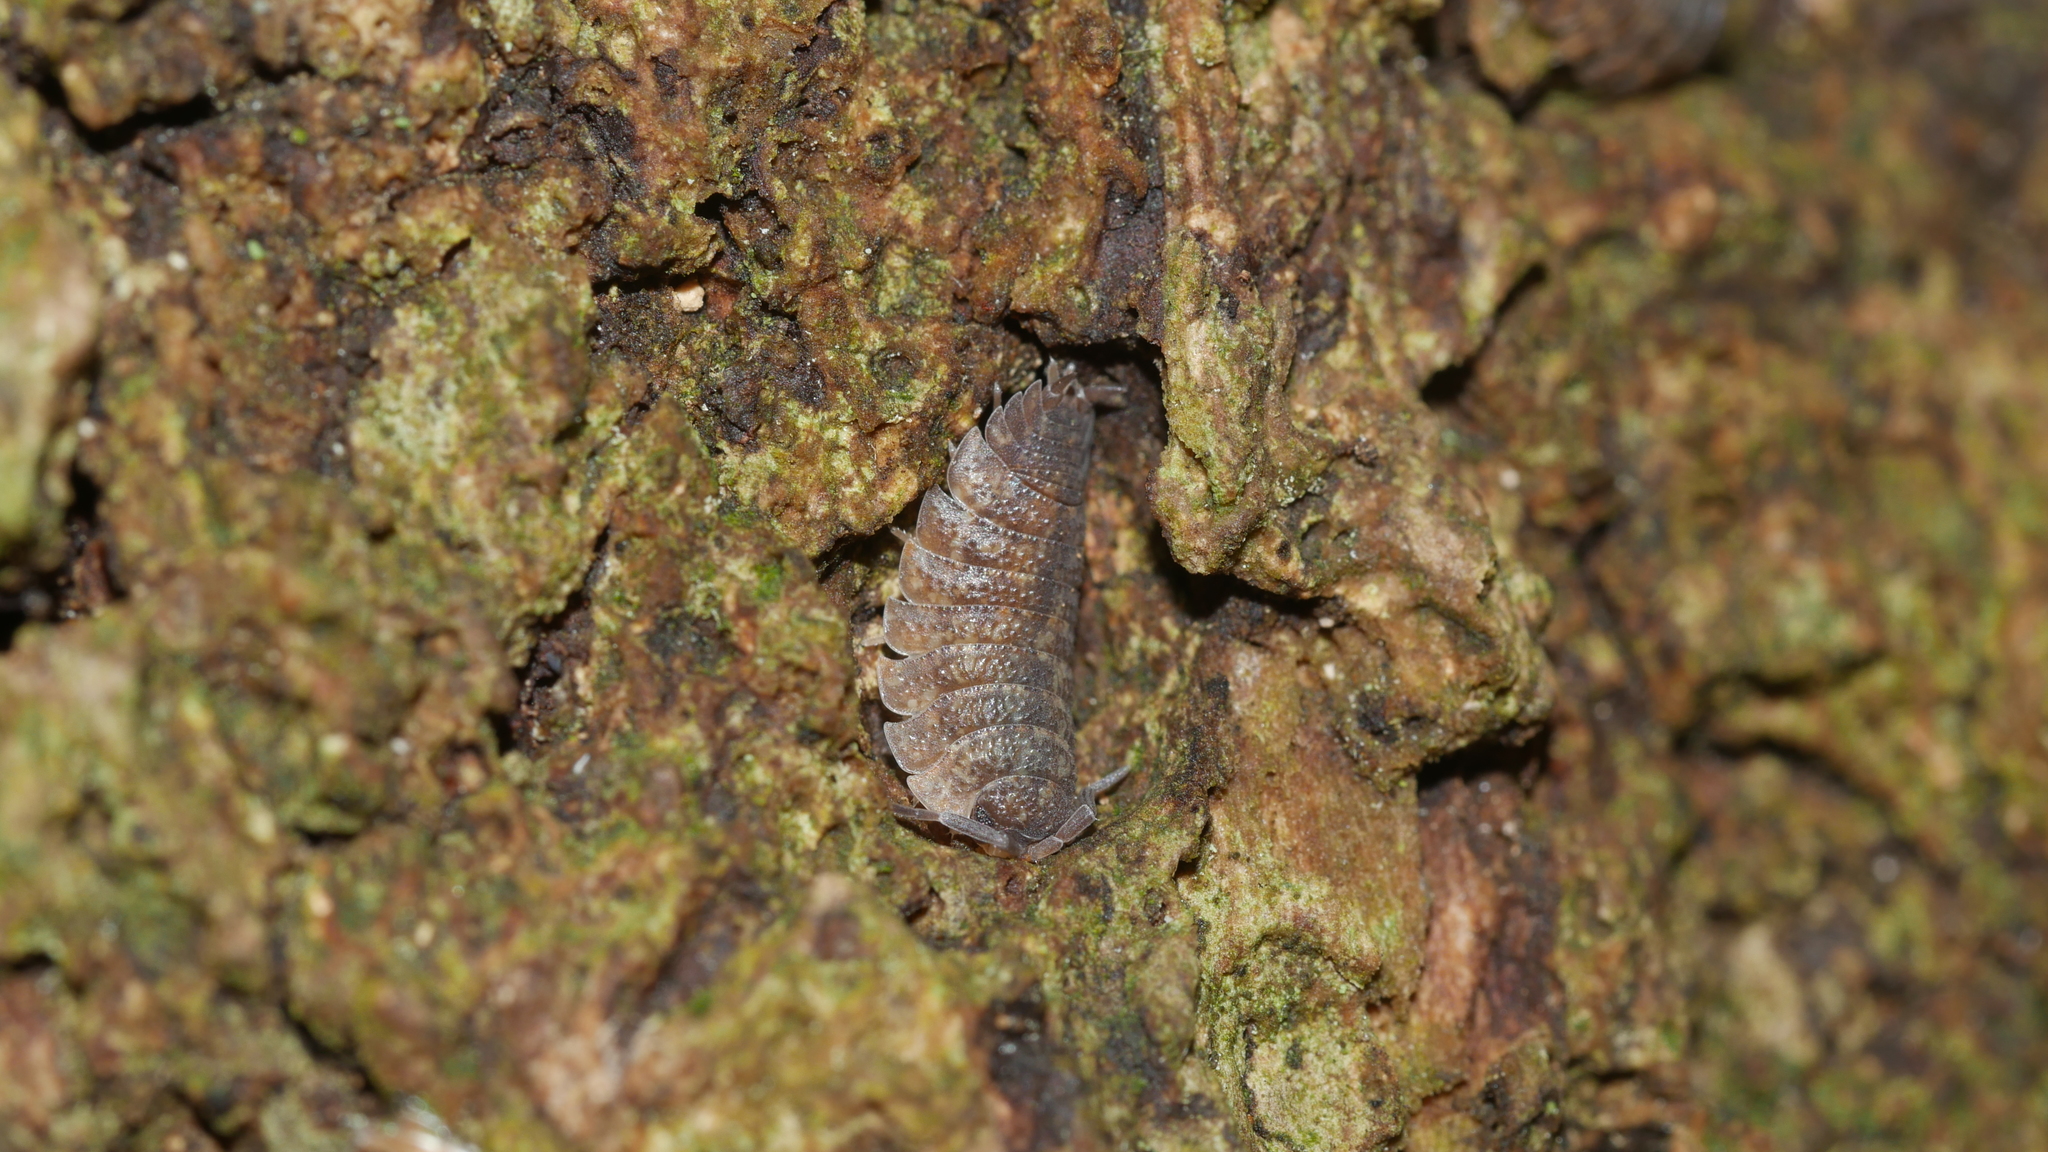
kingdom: Animalia
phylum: Arthropoda
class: Malacostraca
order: Isopoda
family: Porcellionidae
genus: Porcellio
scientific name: Porcellio scaber
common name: Common rough woodlouse
